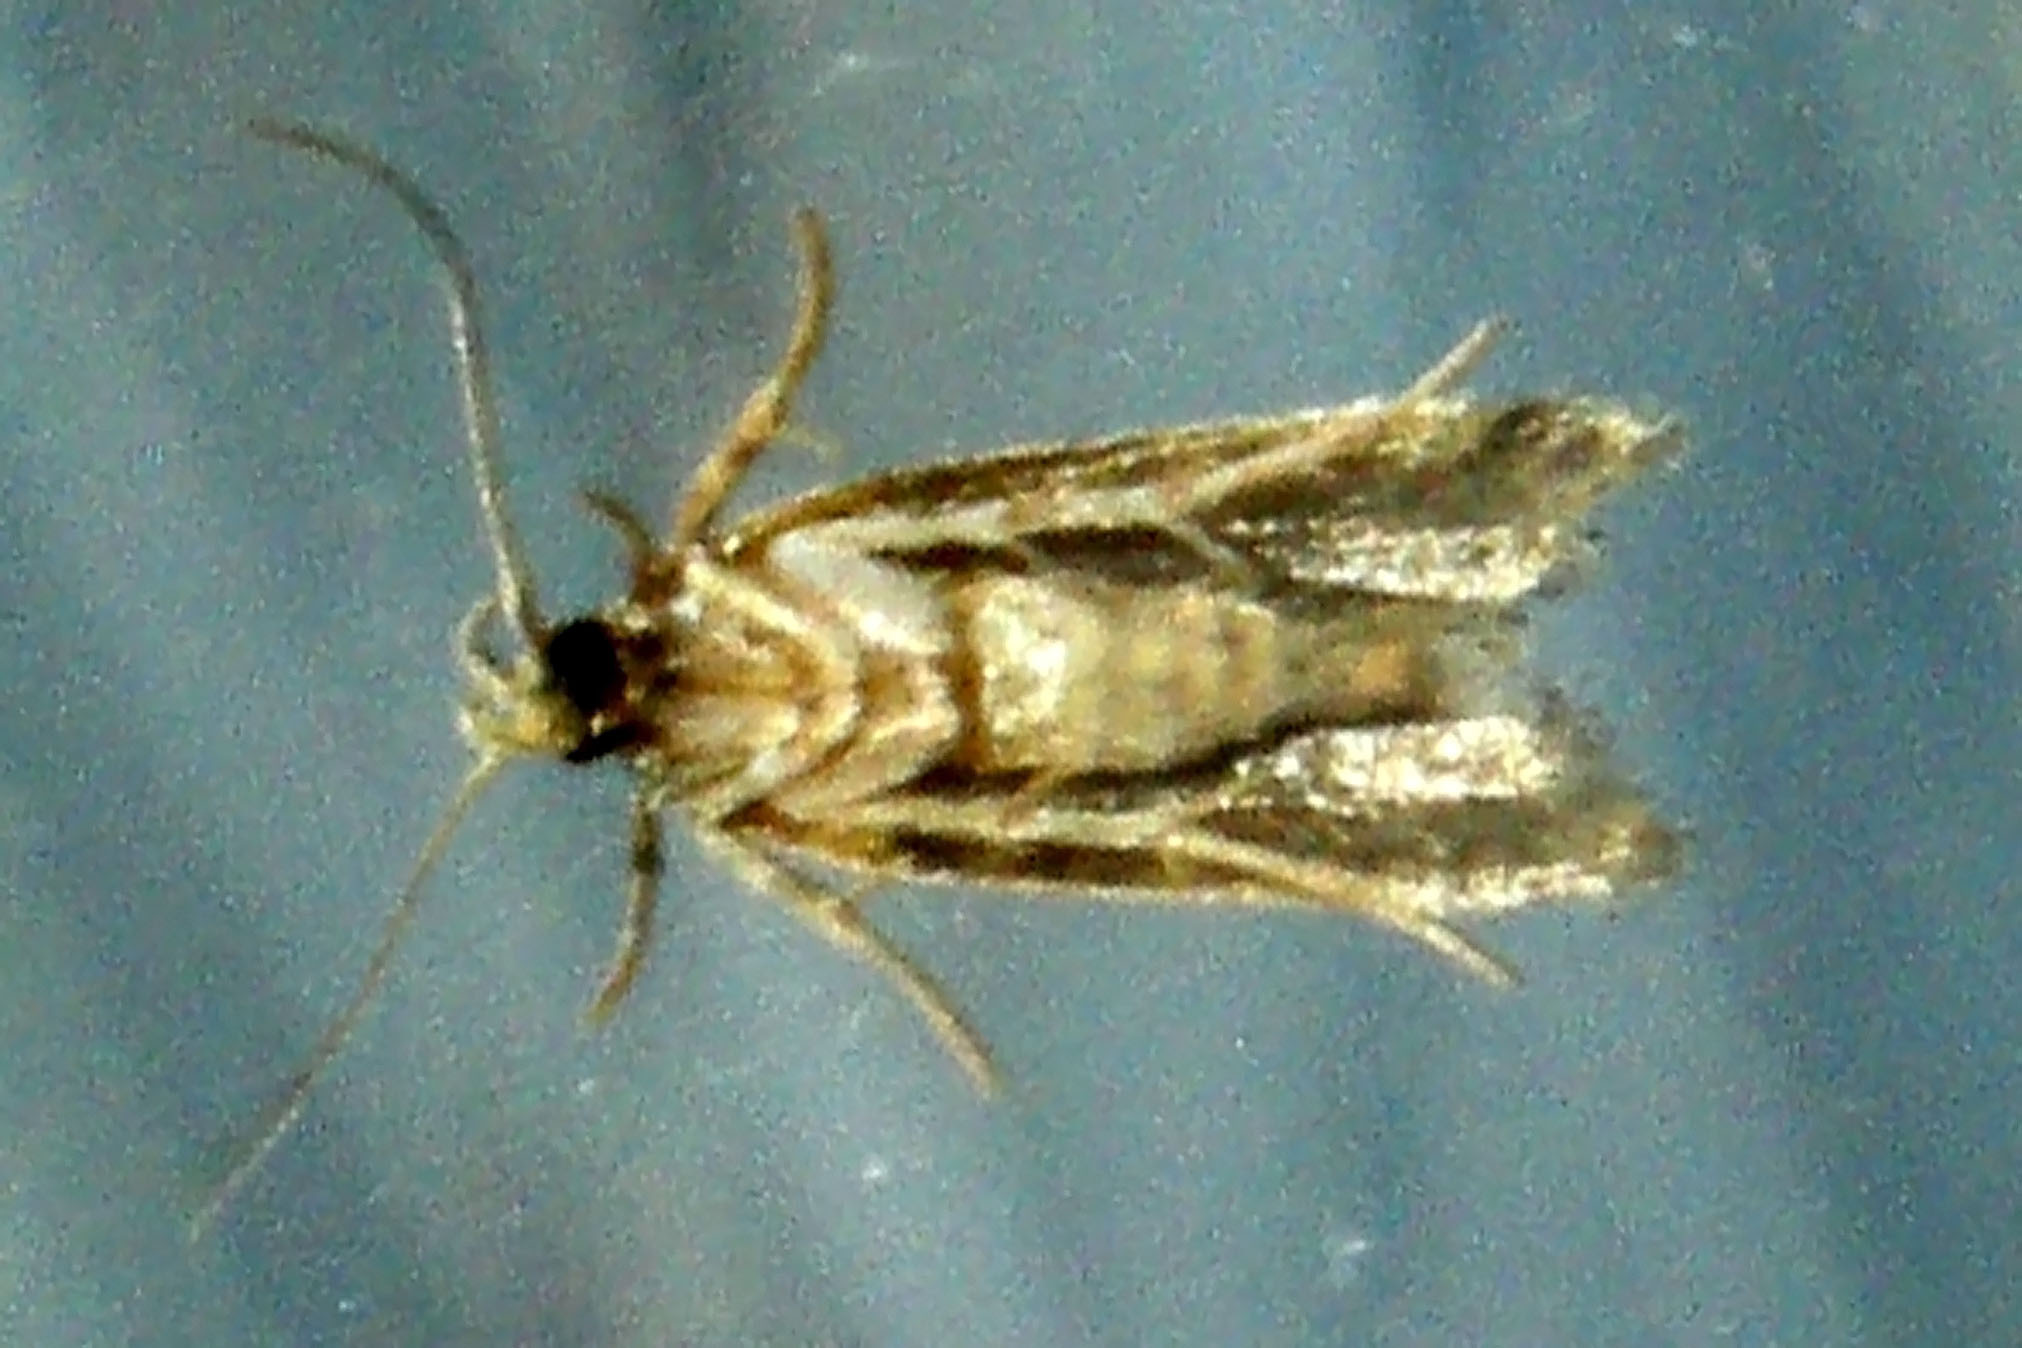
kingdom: Animalia
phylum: Arthropoda
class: Insecta
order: Lepidoptera
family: Gelechiidae
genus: Chionodes
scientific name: Chionodes mediofuscella
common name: Black-smudged chionodes moth
